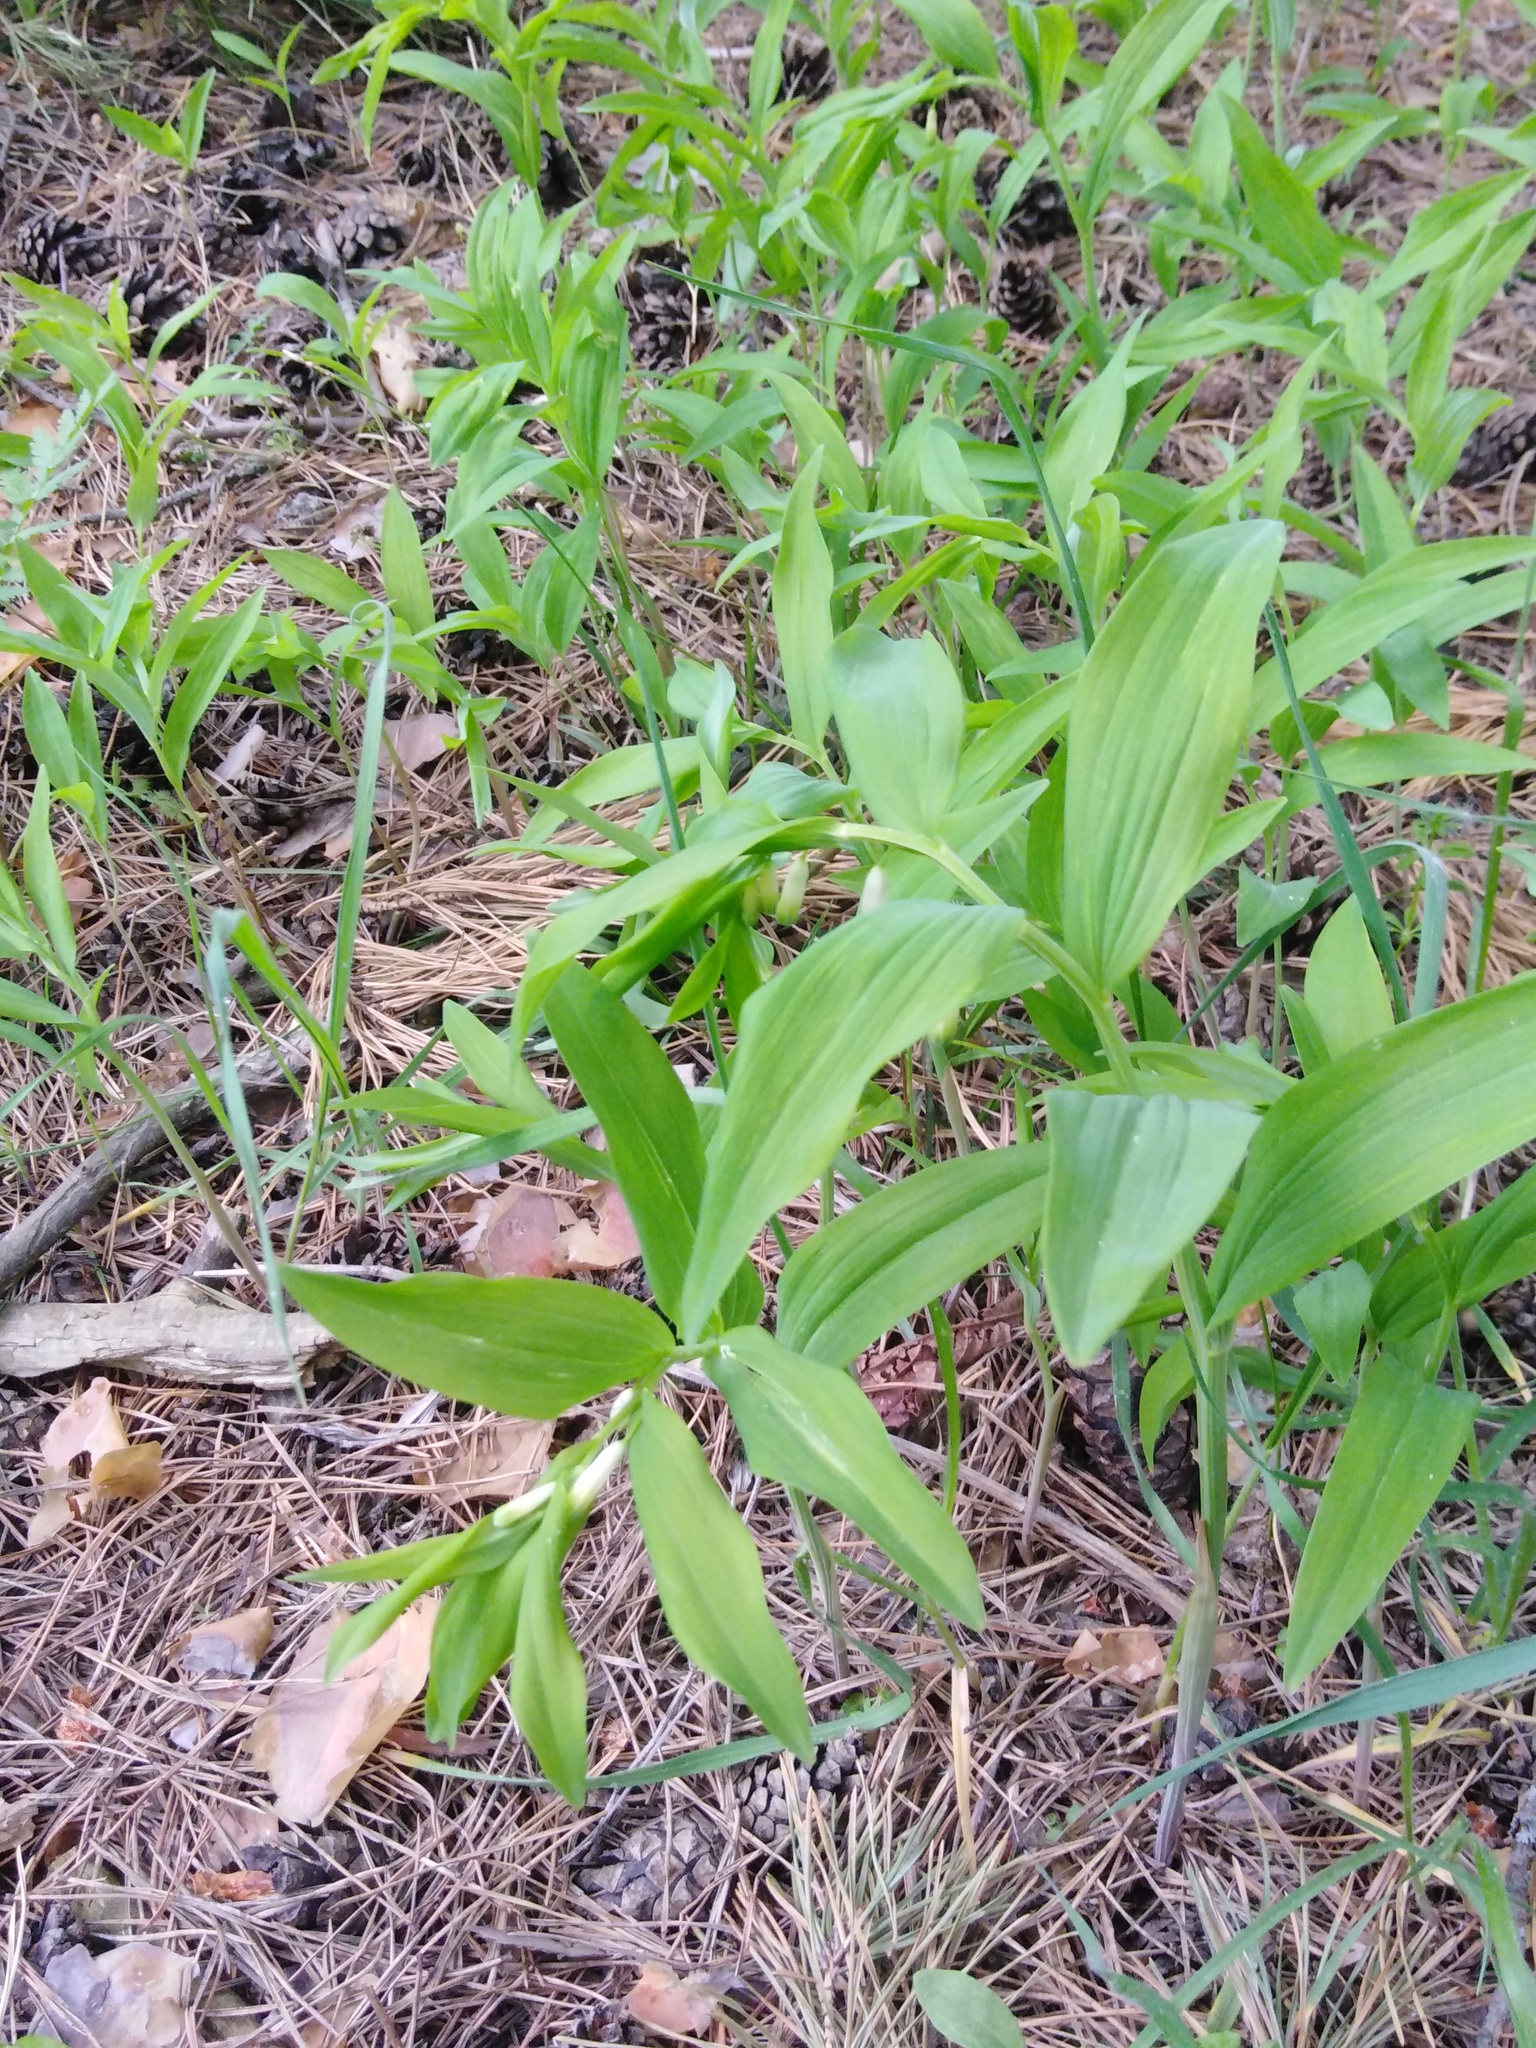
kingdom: Plantae
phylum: Tracheophyta
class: Liliopsida
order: Asparagales
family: Asparagaceae
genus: Polygonatum
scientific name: Polygonatum odoratum
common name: Angular solomon's-seal
